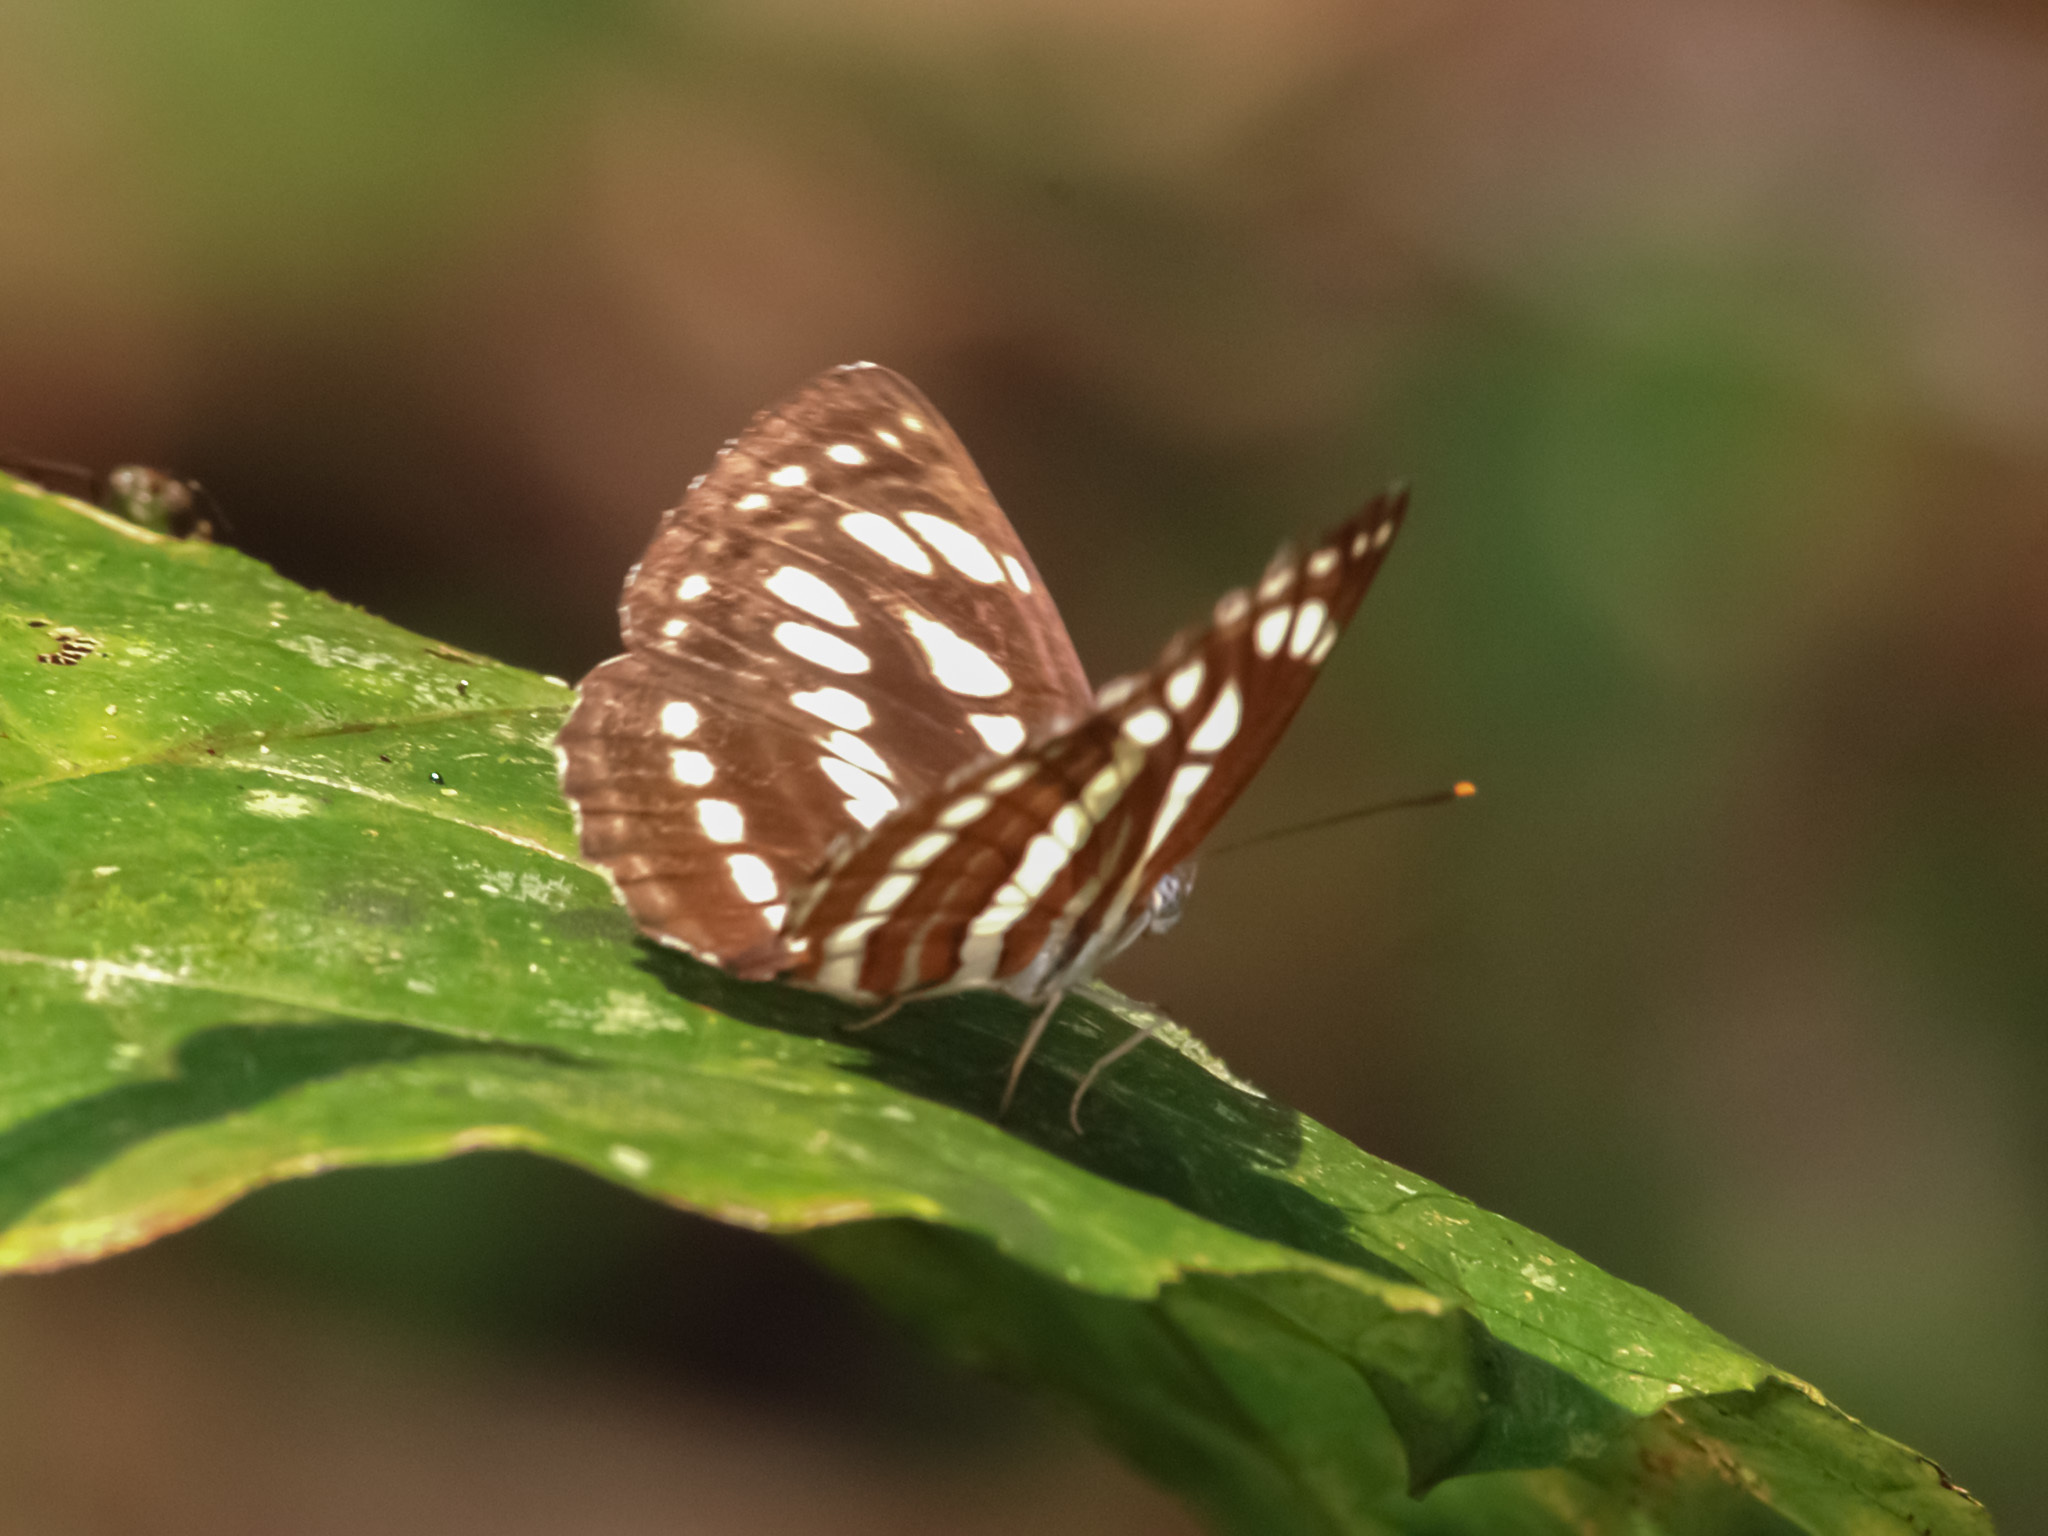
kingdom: Animalia
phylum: Arthropoda
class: Insecta
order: Lepidoptera
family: Nymphalidae
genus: Neptis
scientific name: Neptis hylas
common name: Common sailer
